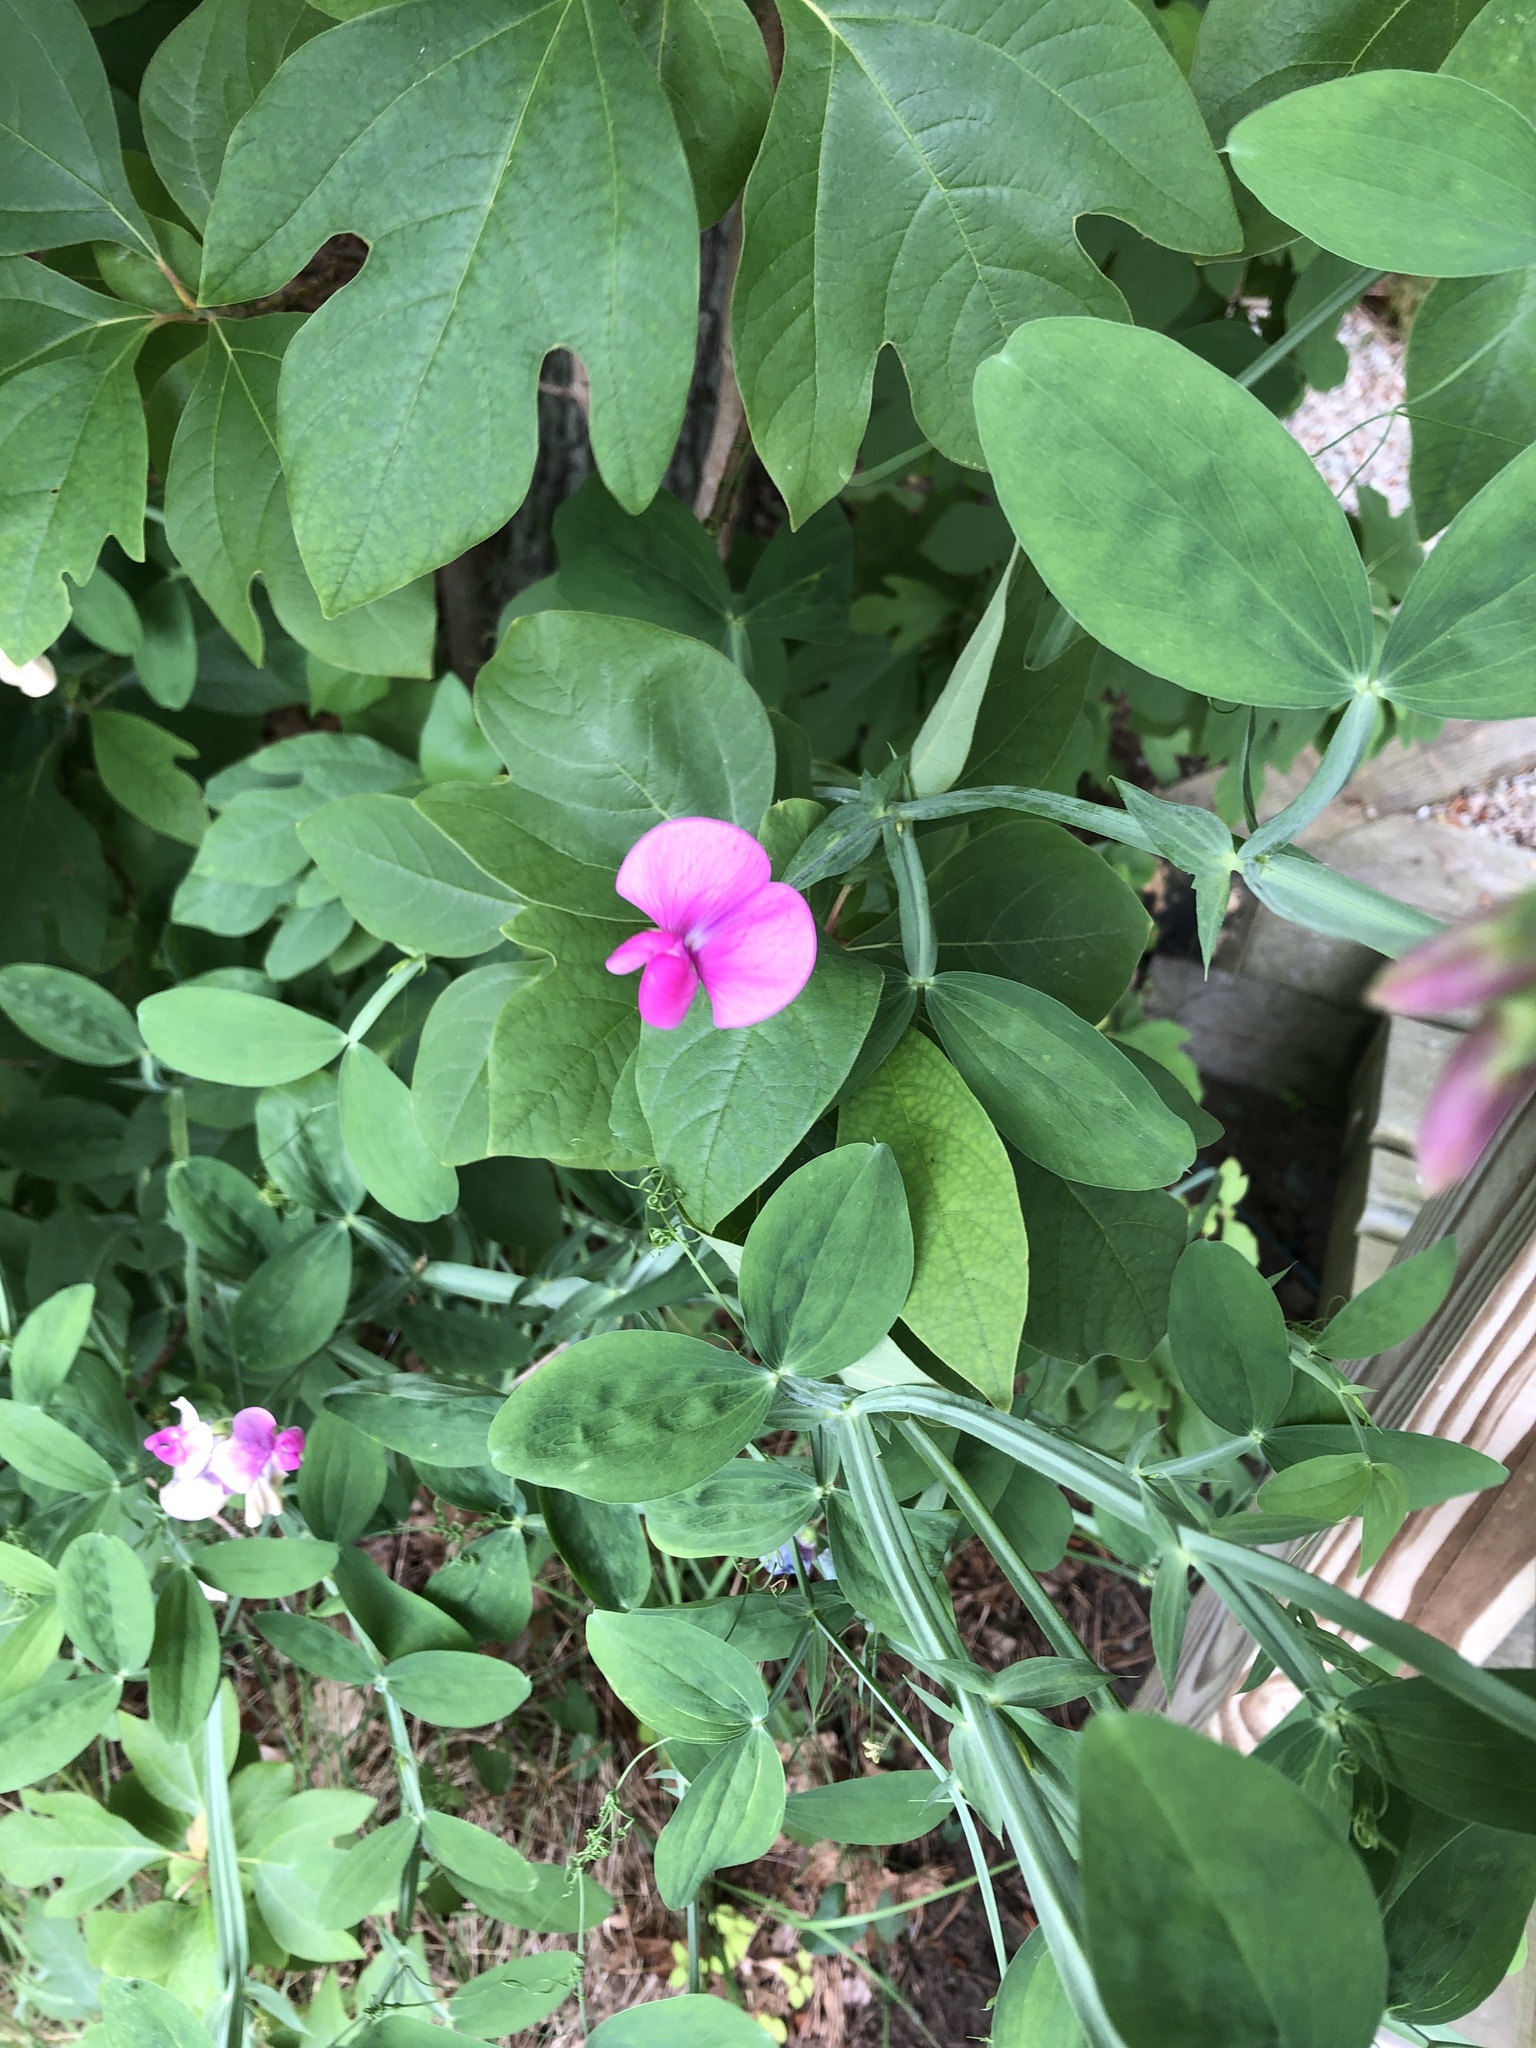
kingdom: Plantae
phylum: Tracheophyta
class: Magnoliopsida
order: Fabales
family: Fabaceae
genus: Lathyrus
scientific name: Lathyrus latifolius
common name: Perennial pea
